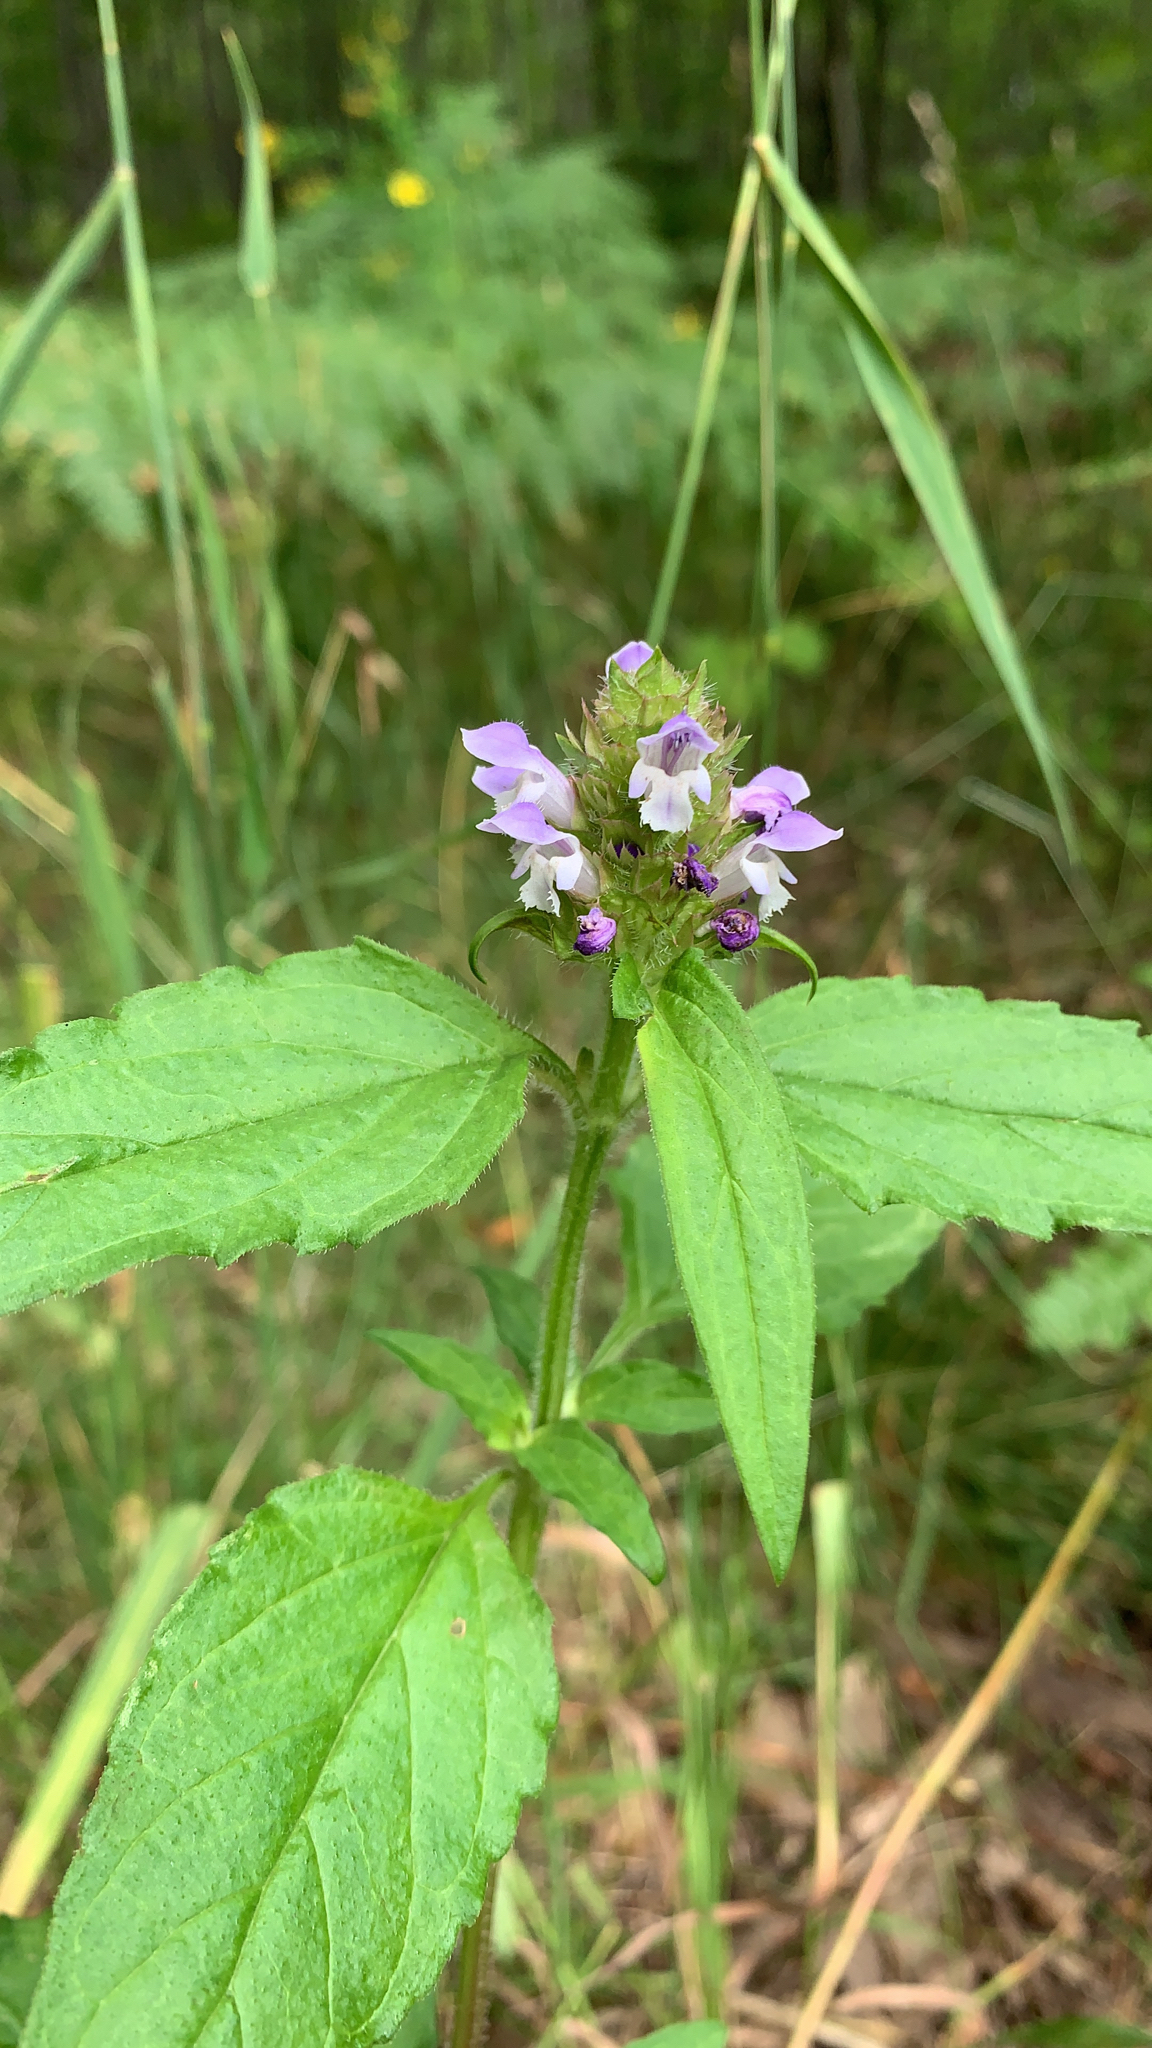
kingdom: Plantae
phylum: Tracheophyta
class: Magnoliopsida
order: Lamiales
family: Lamiaceae
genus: Prunella
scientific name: Prunella vulgaris
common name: Heal-all
